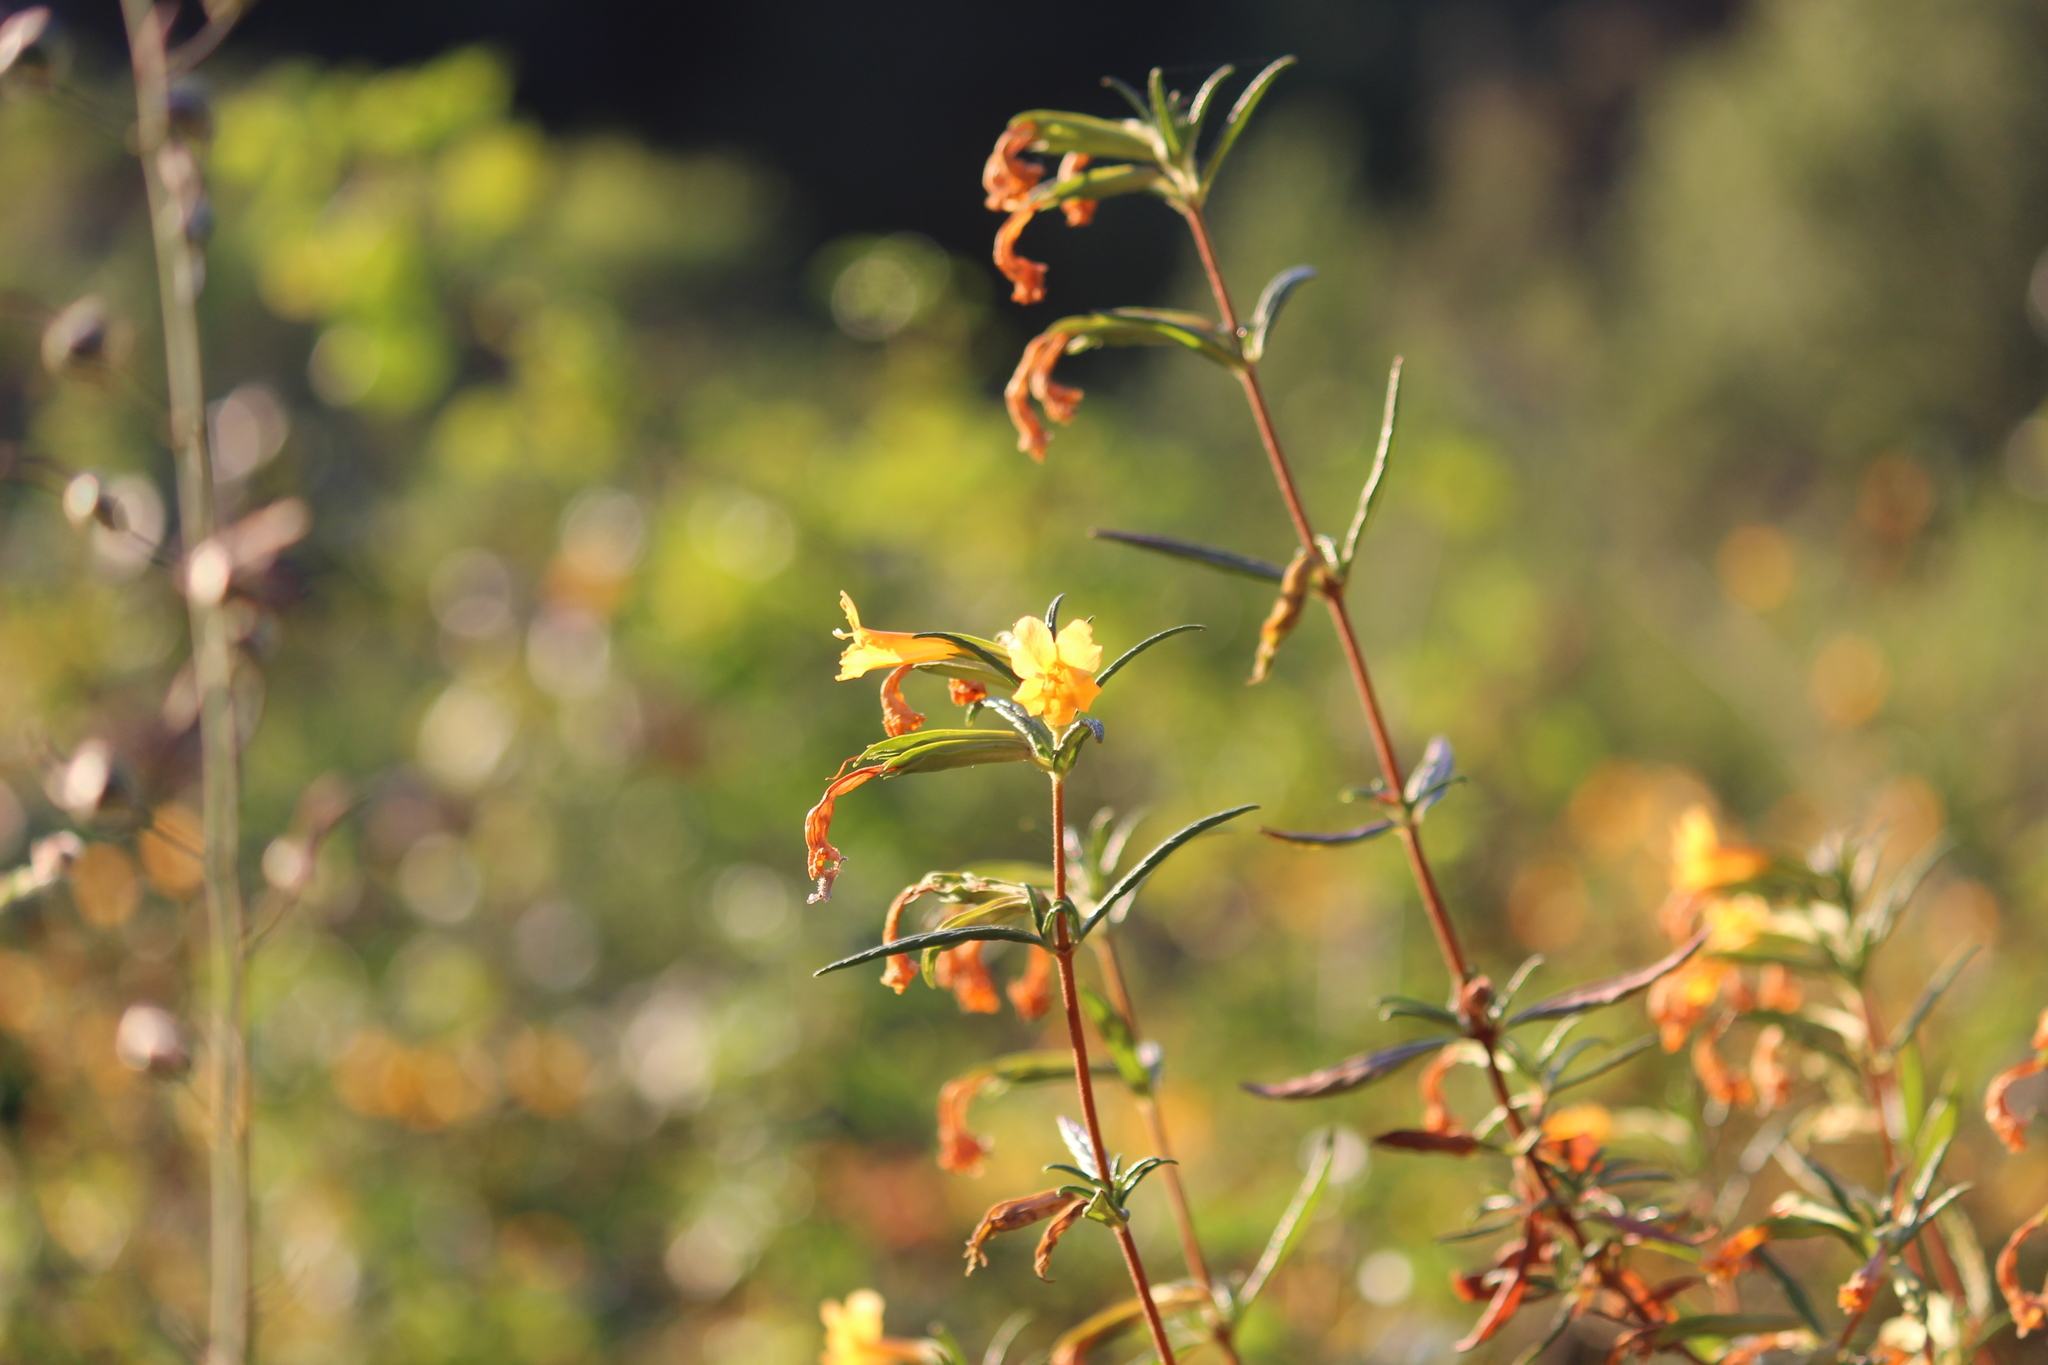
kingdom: Plantae
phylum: Tracheophyta
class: Magnoliopsida
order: Lamiales
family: Phrymaceae
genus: Diplacus
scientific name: Diplacus aurantiacus
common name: Bush monkey-flower
